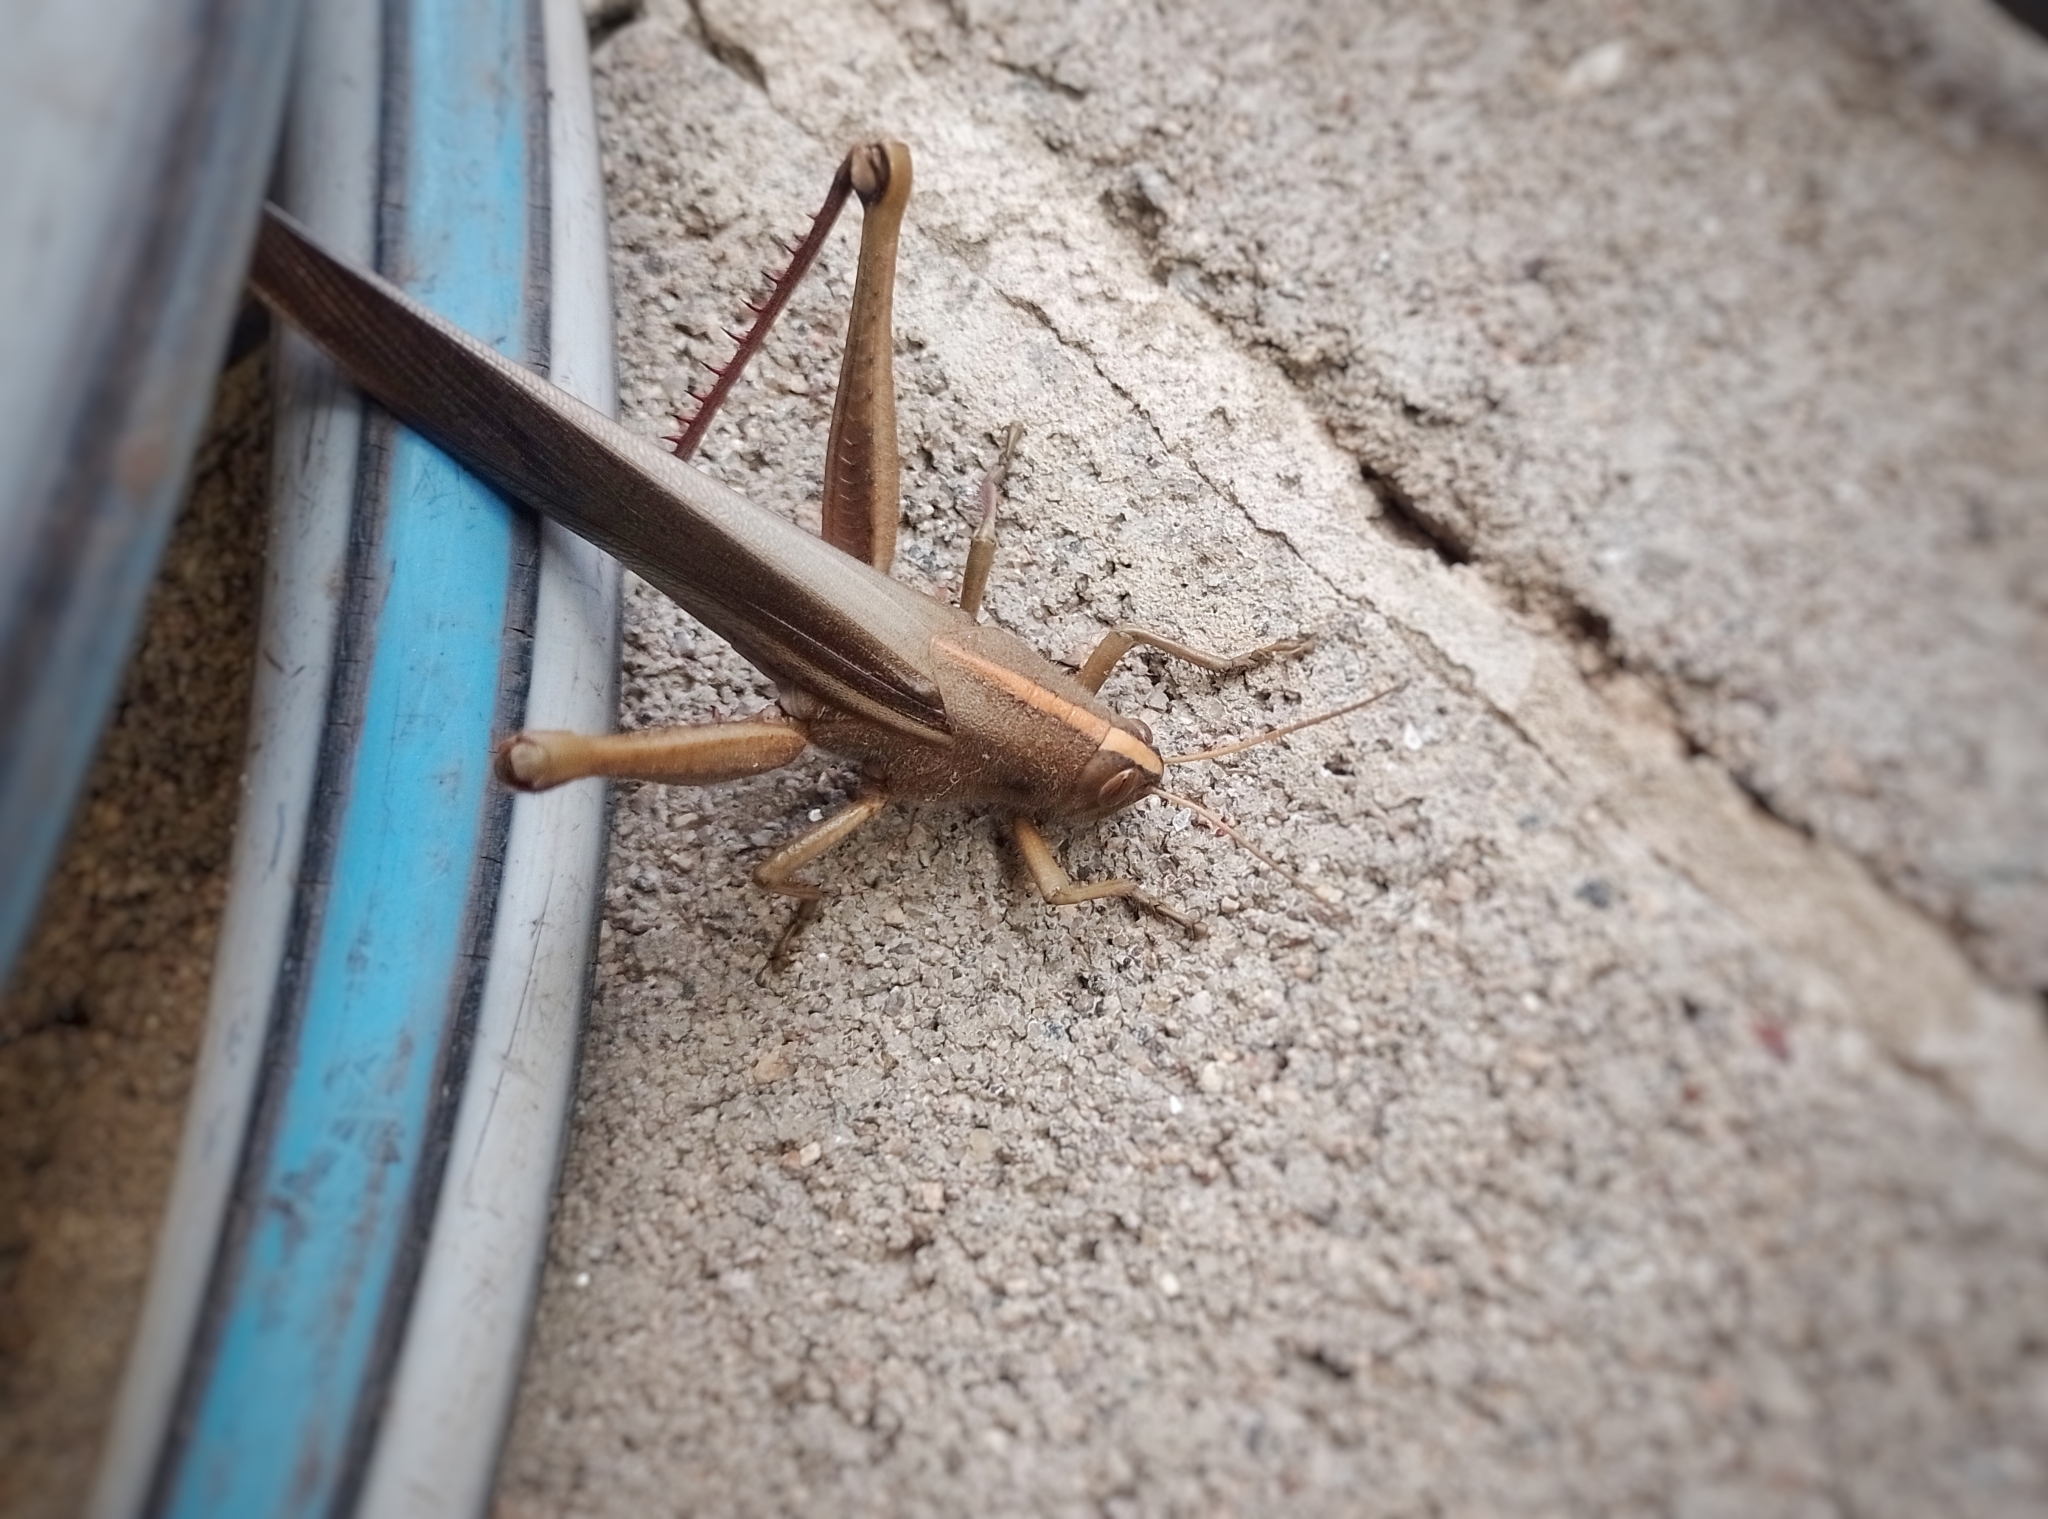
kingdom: Animalia
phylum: Arthropoda
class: Insecta
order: Orthoptera
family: Acrididae
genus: Schistocerca
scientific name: Schistocerca flavofasciata
